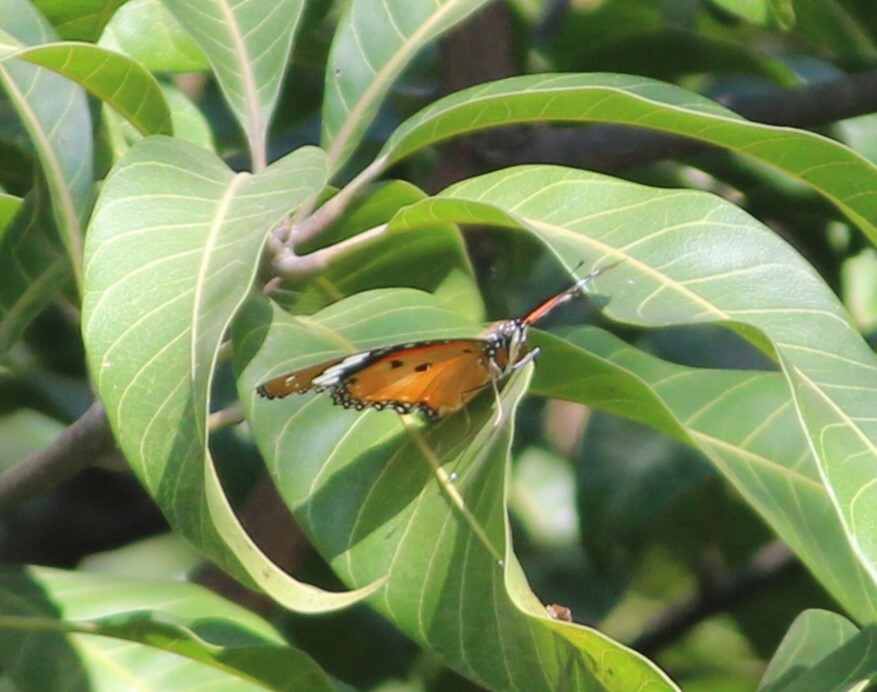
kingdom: Animalia
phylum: Arthropoda
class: Insecta
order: Lepidoptera
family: Nymphalidae
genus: Hypolimnas
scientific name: Hypolimnas misippus
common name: False plain tiger
